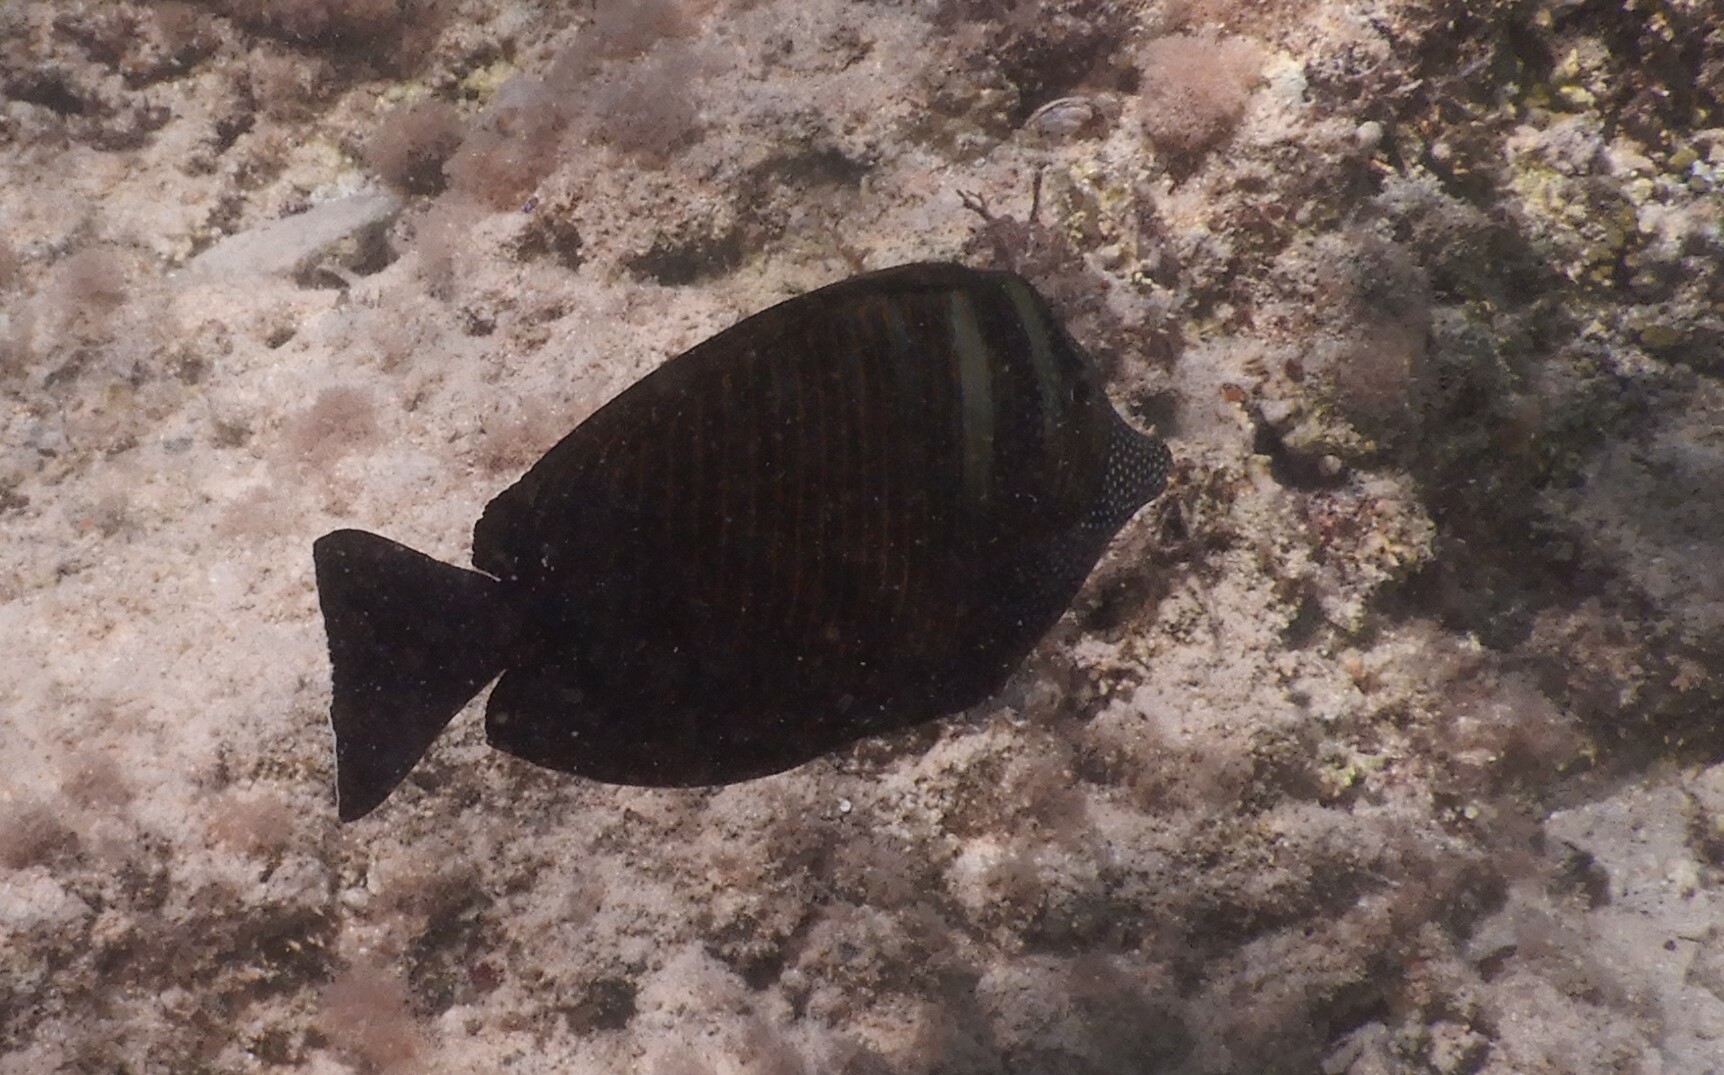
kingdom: Animalia
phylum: Chordata
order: Perciformes
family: Acanthuridae
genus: Zebrasoma
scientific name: Zebrasoma desjardinii
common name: Desjardin's sailfin tang
